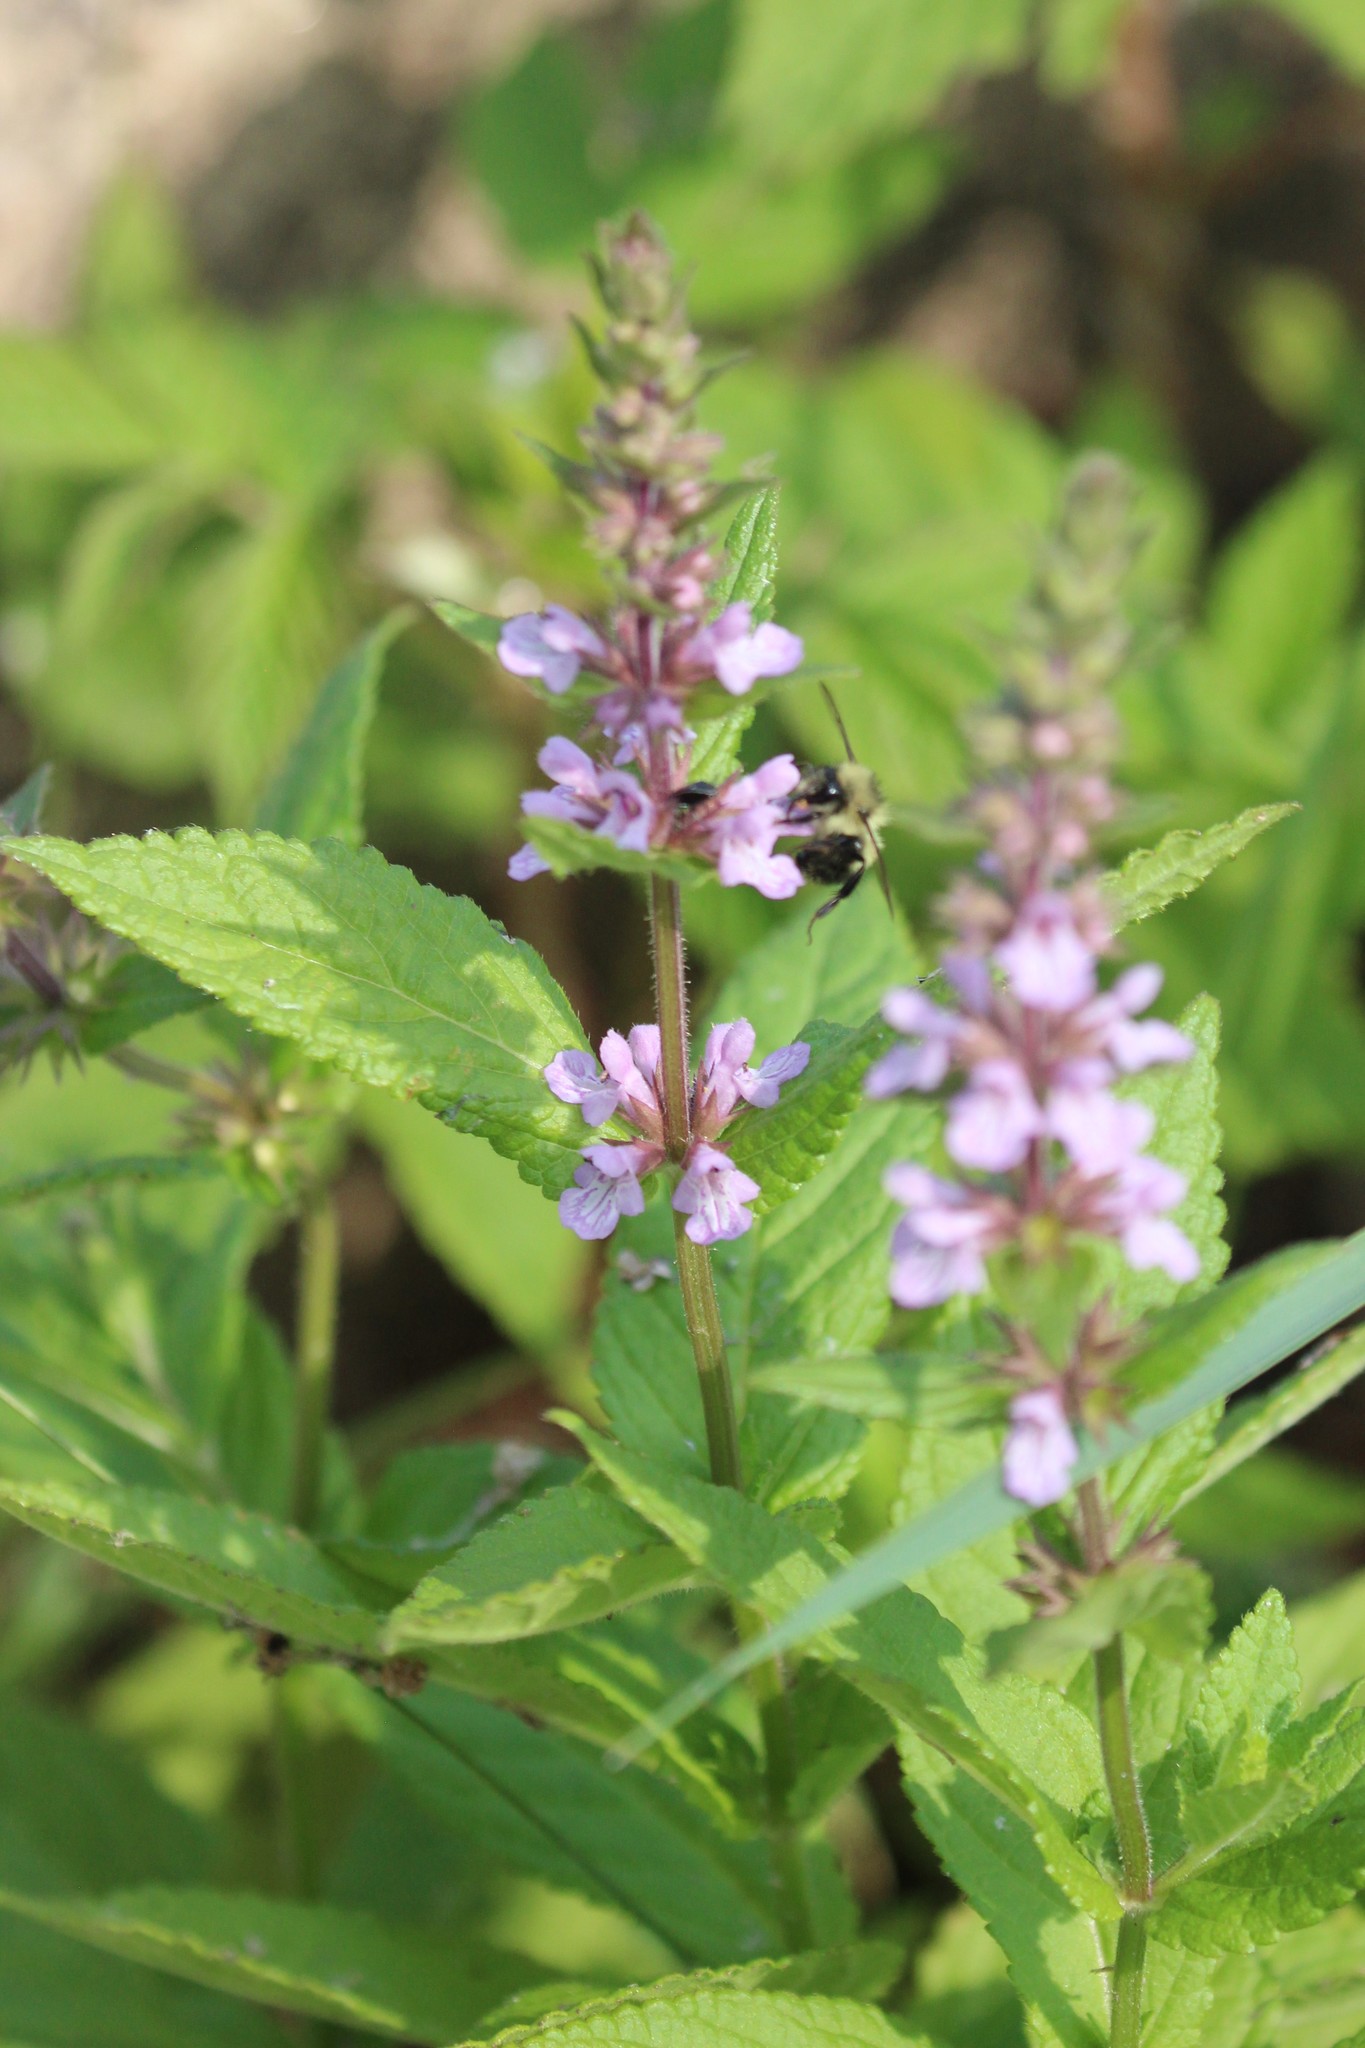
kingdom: Plantae
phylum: Tracheophyta
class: Magnoliopsida
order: Lamiales
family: Lamiaceae
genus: Stachys
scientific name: Stachys palustris
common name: Marsh woundwort
